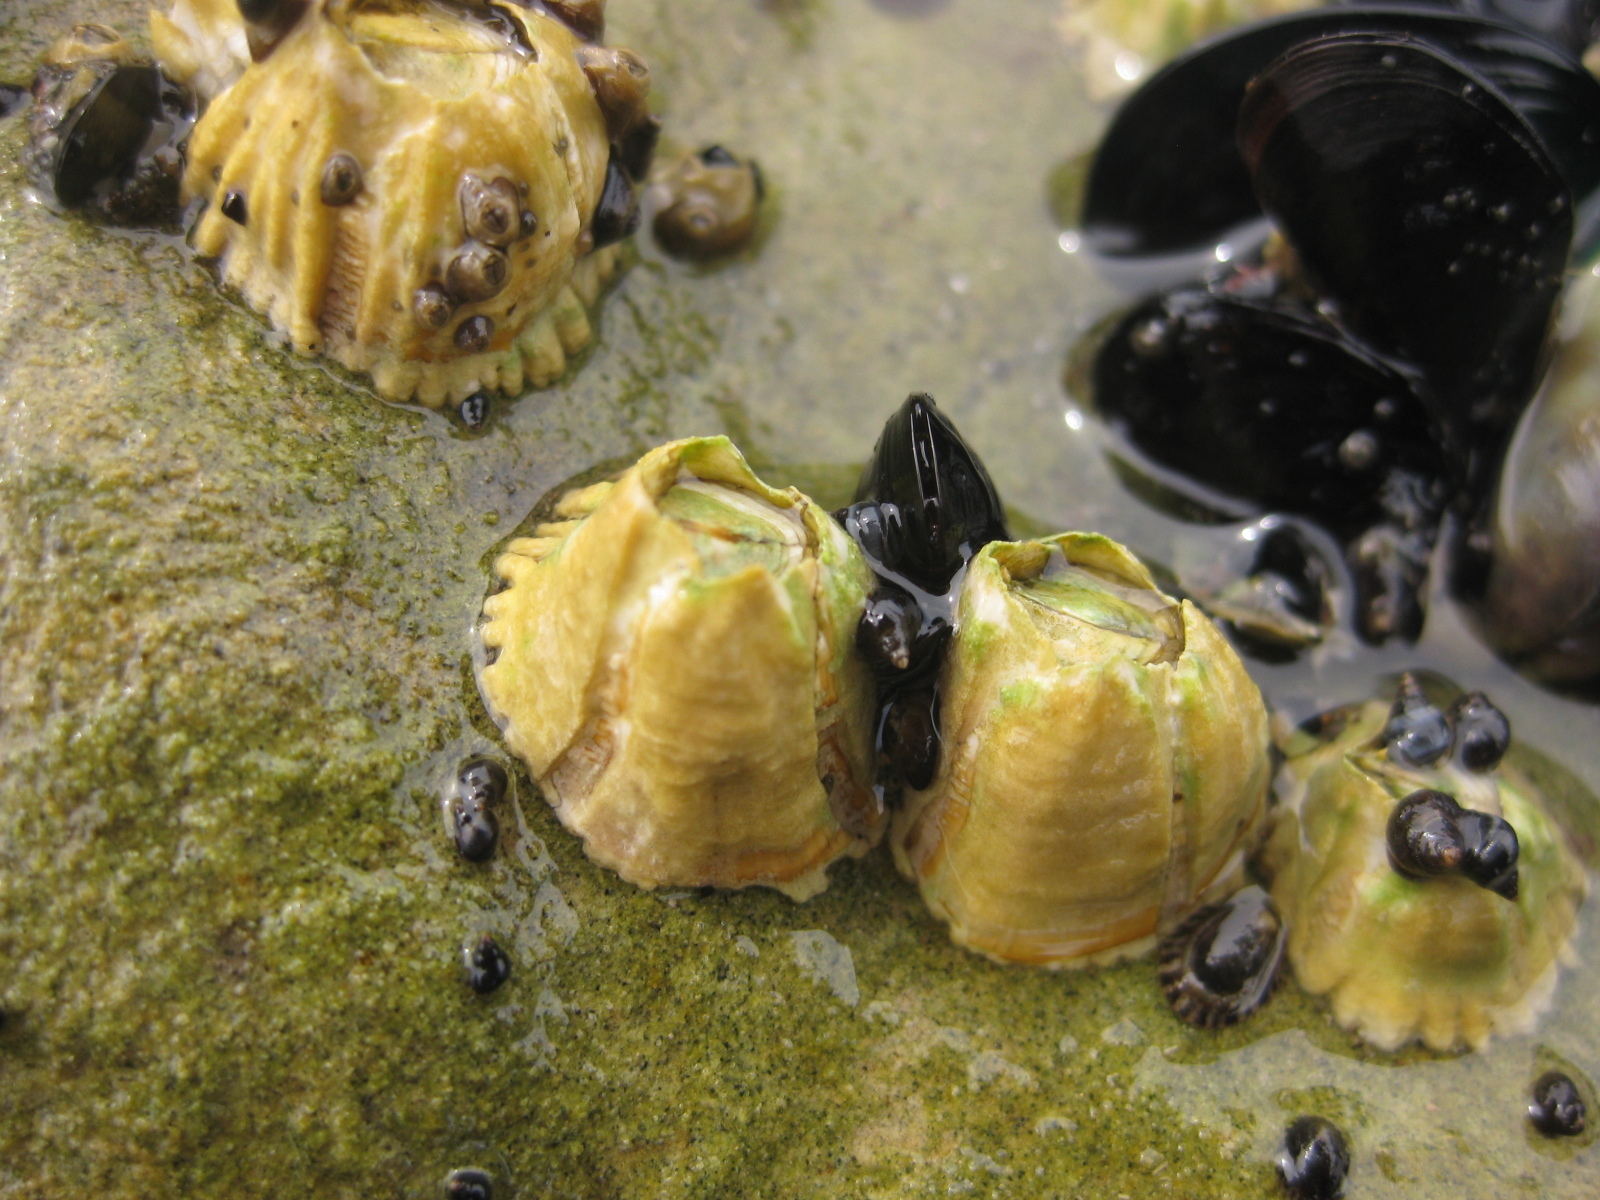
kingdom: Animalia
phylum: Arthropoda
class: Maxillopoda
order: Sessilia
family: Tetraclitidae
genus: Epopella
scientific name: Epopella plicata
